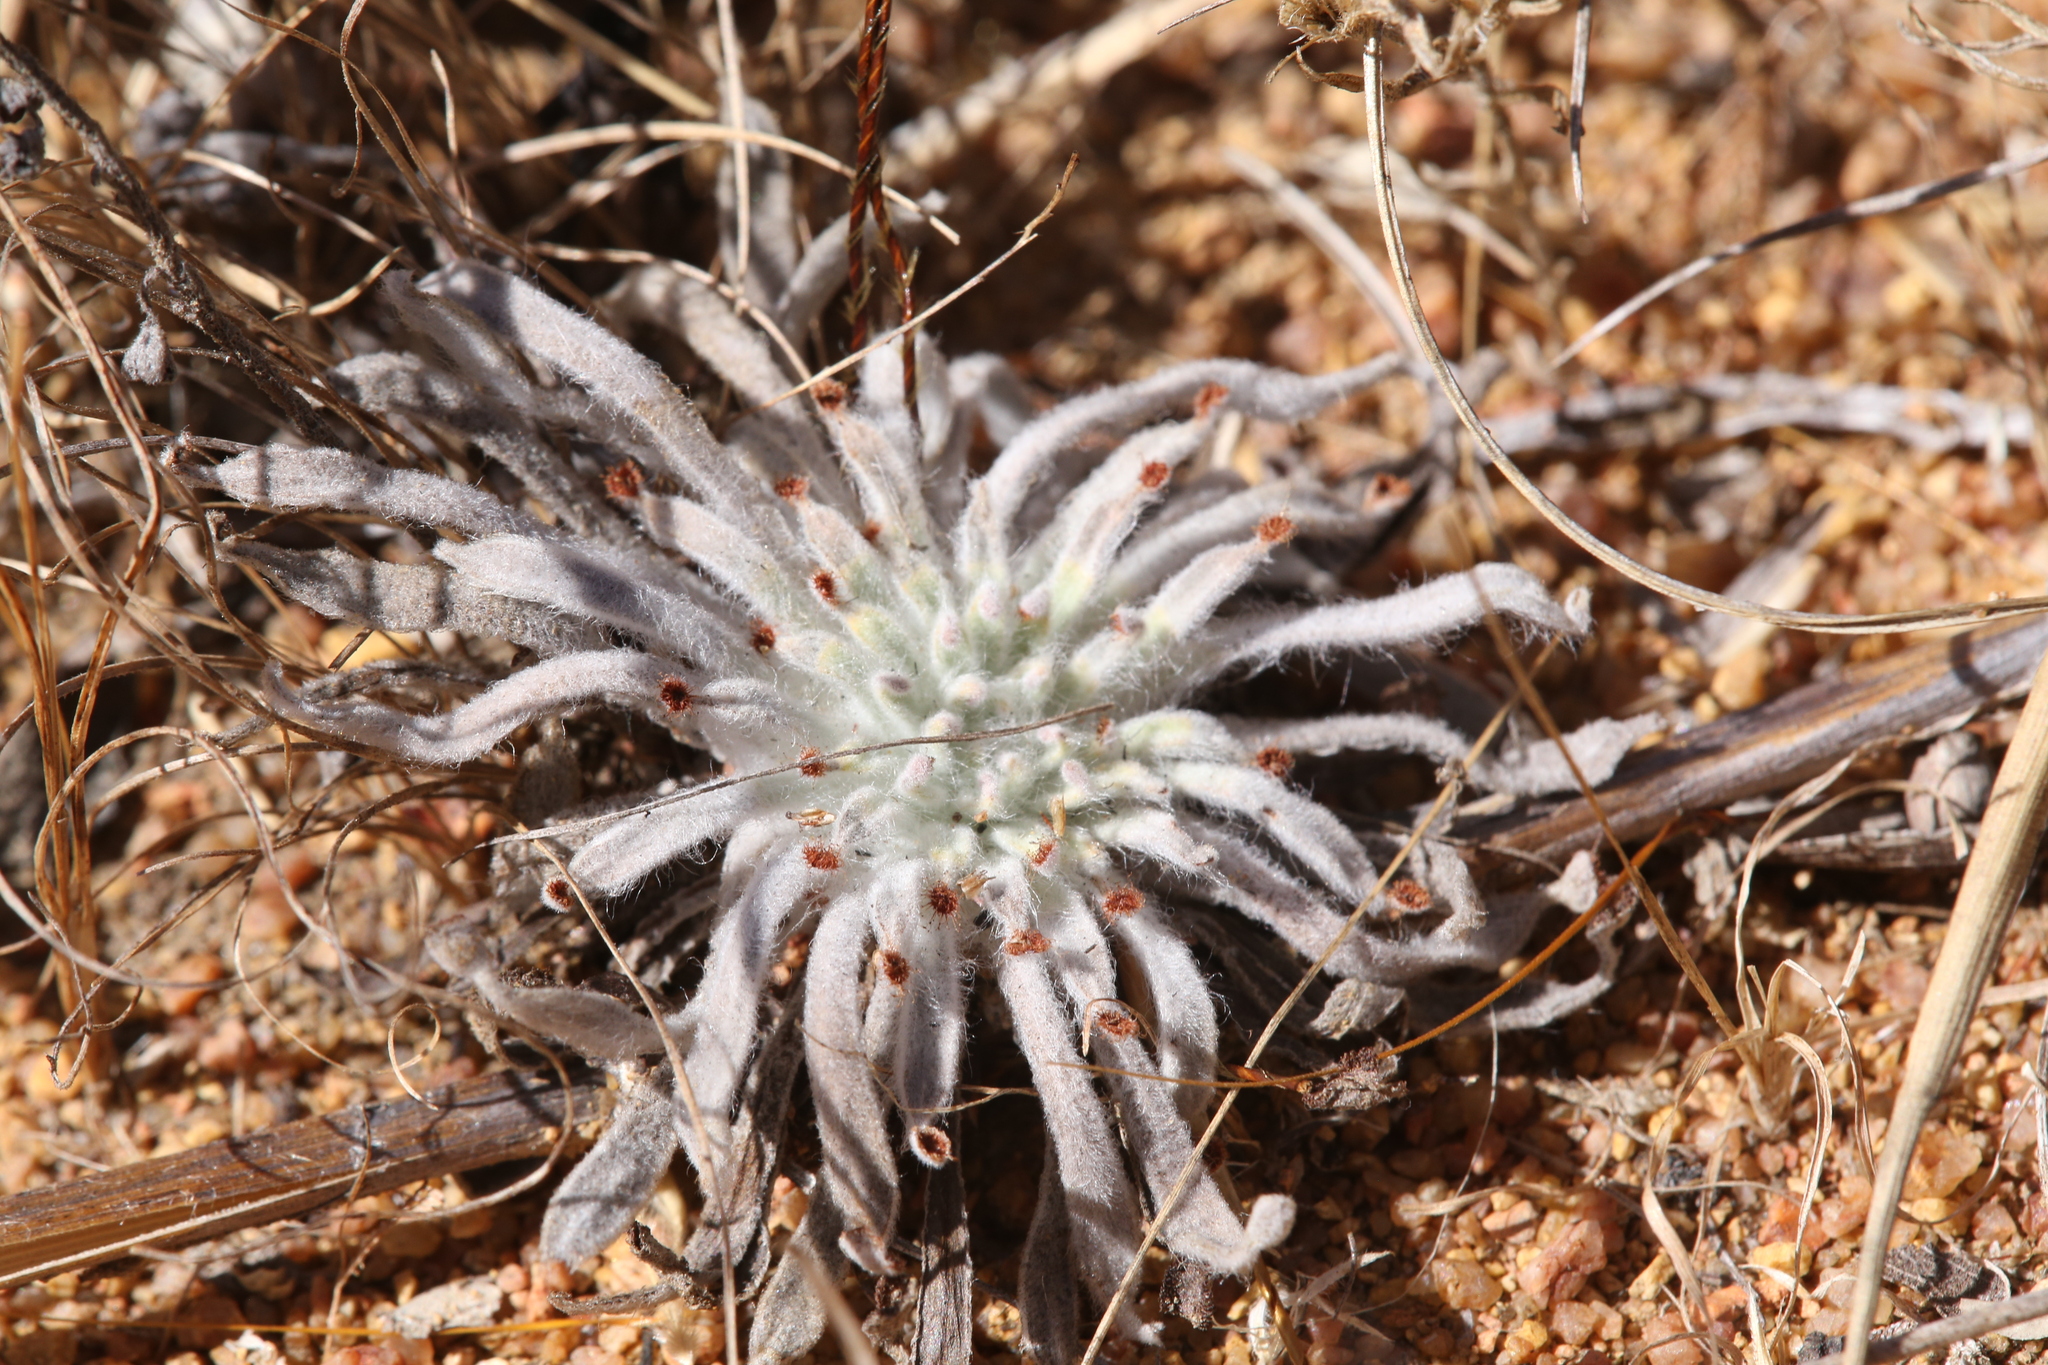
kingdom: Plantae
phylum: Tracheophyta
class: Magnoliopsida
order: Caryophyllales
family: Droseraceae
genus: Drosera
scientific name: Drosera ordensis
